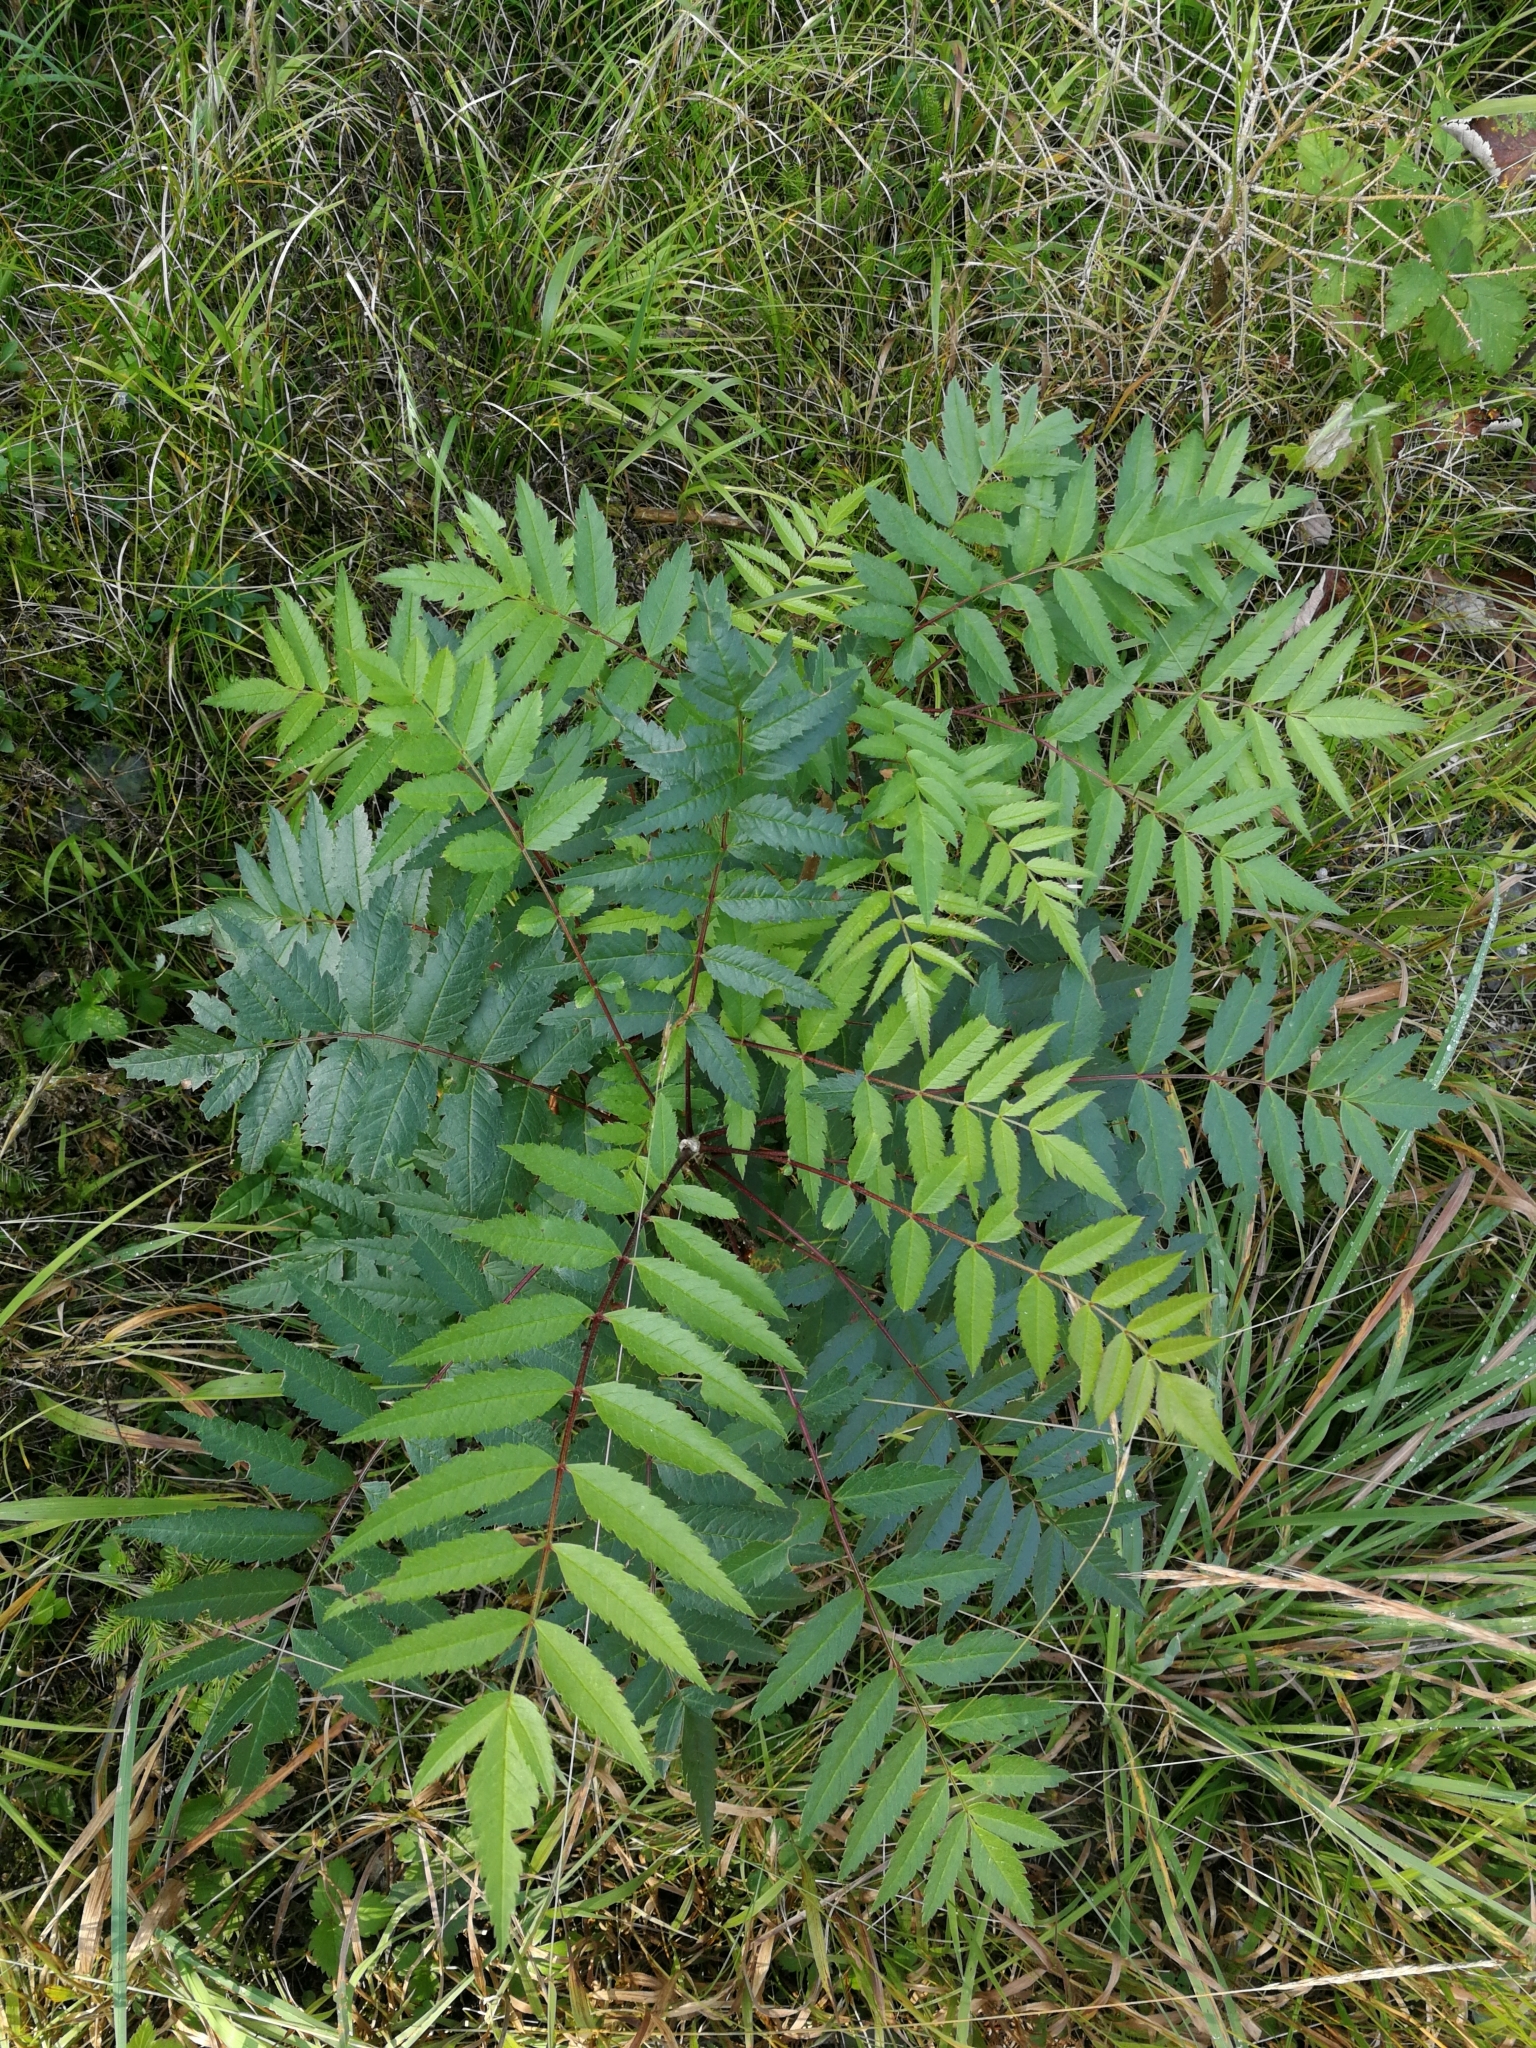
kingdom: Plantae
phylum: Tracheophyta
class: Magnoliopsida
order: Rosales
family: Rosaceae
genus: Sorbus
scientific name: Sorbus aucuparia
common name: Rowan
